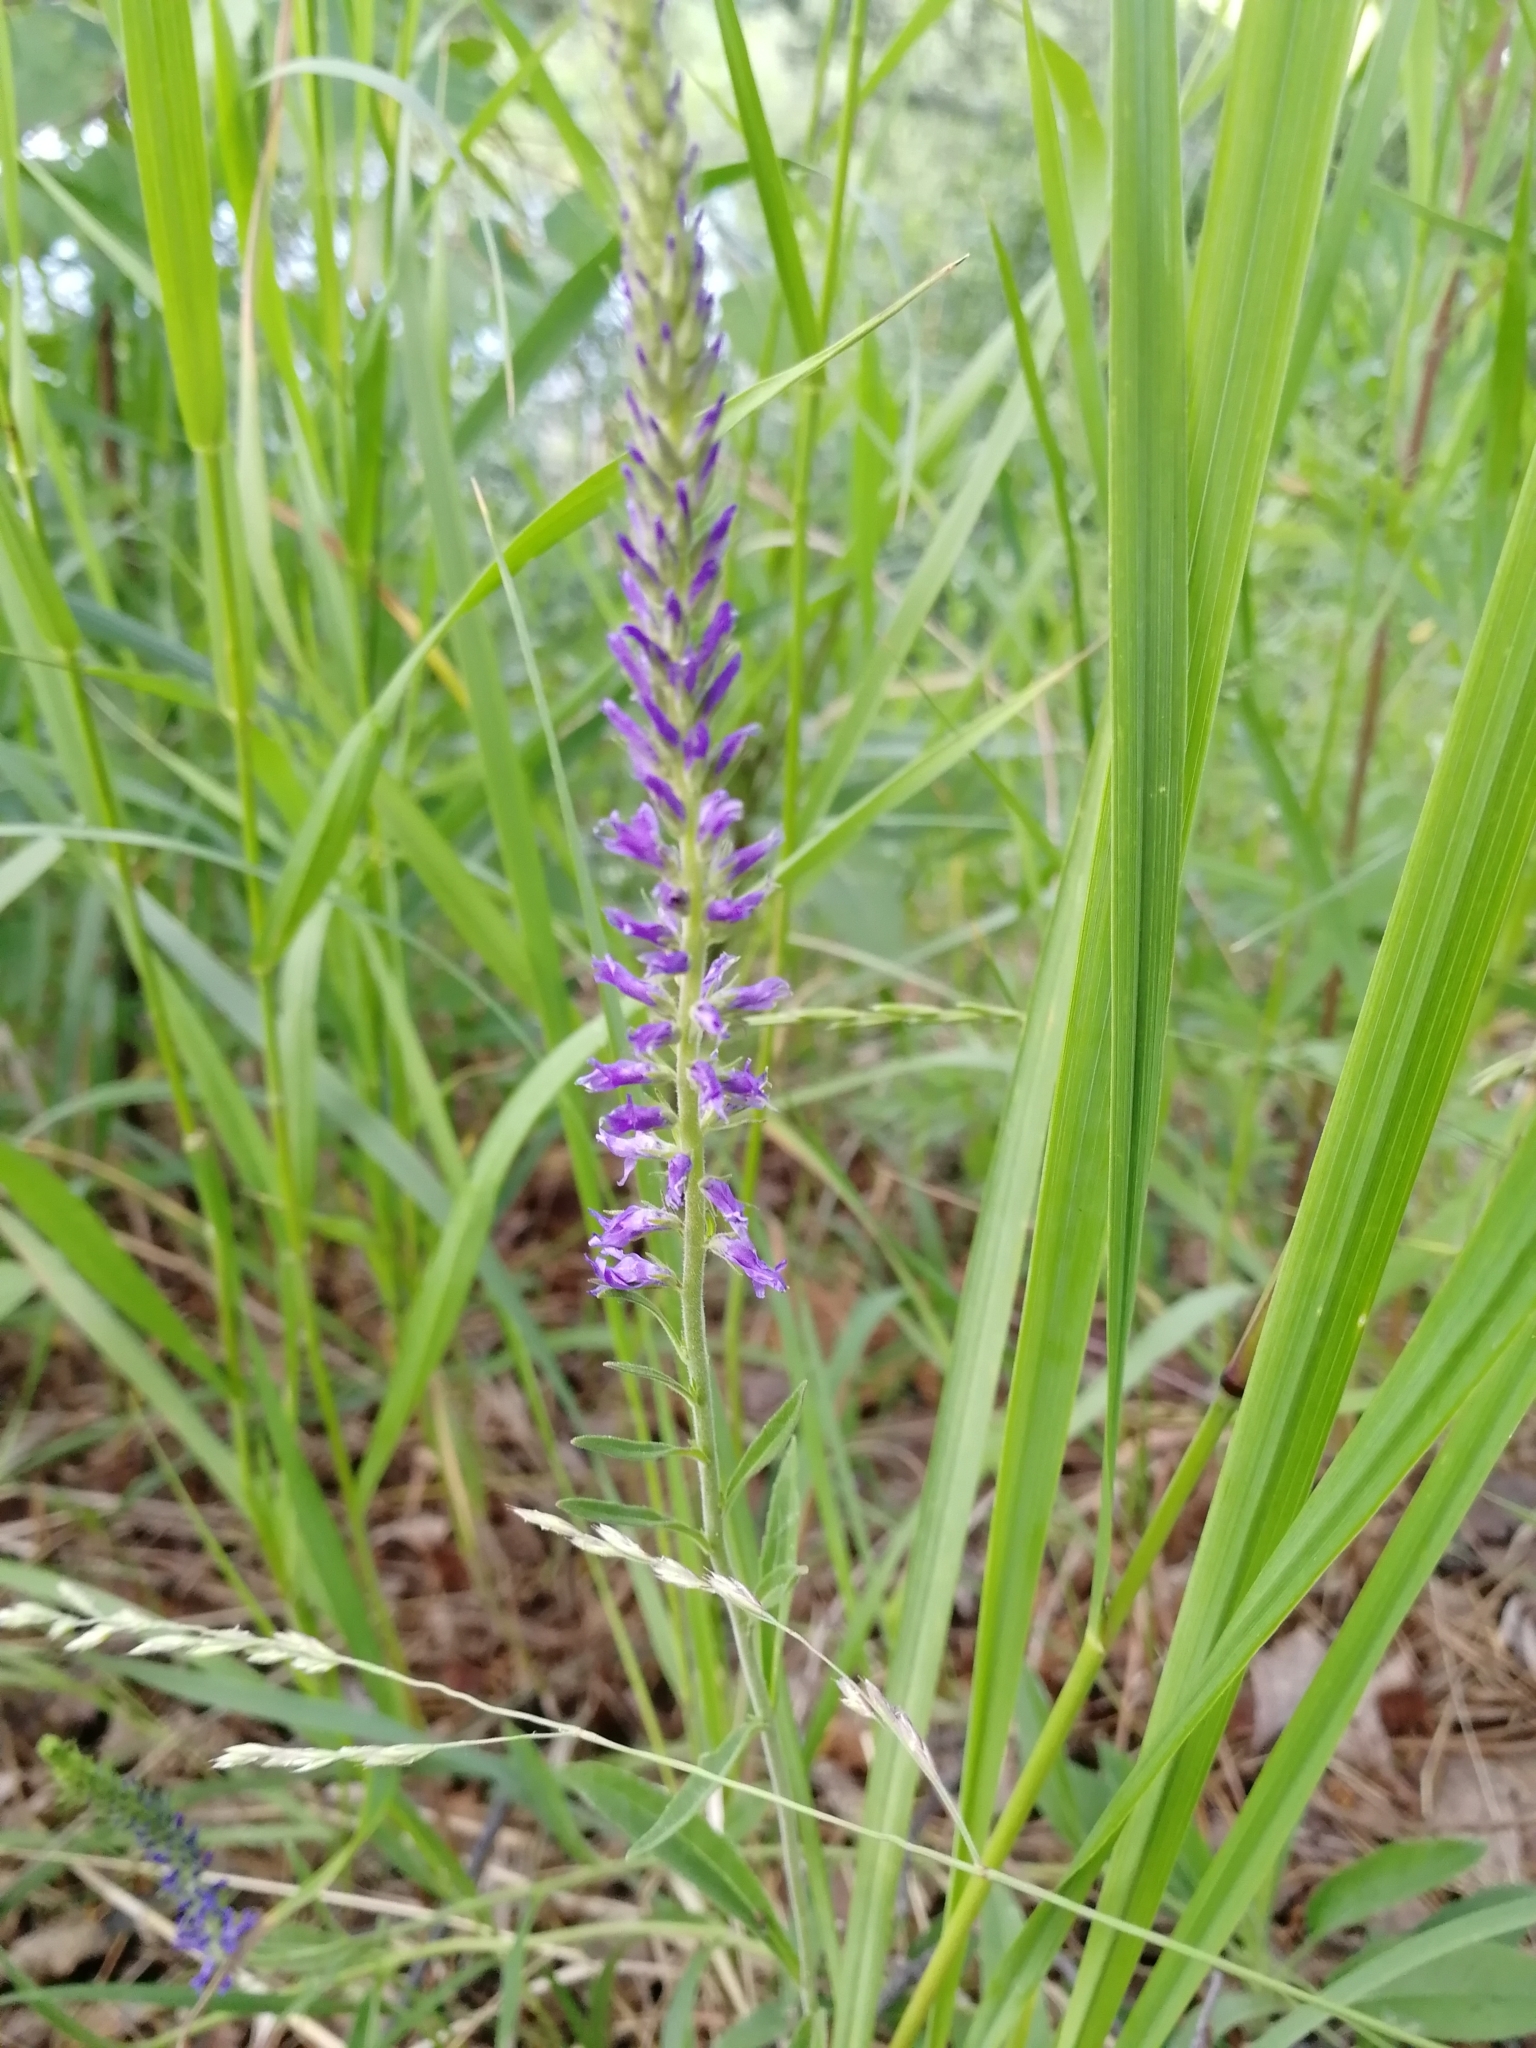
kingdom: Plantae
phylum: Tracheophyta
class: Magnoliopsida
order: Lamiales
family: Plantaginaceae
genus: Veronica
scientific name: Veronica spicata
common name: Spiked speedwell
